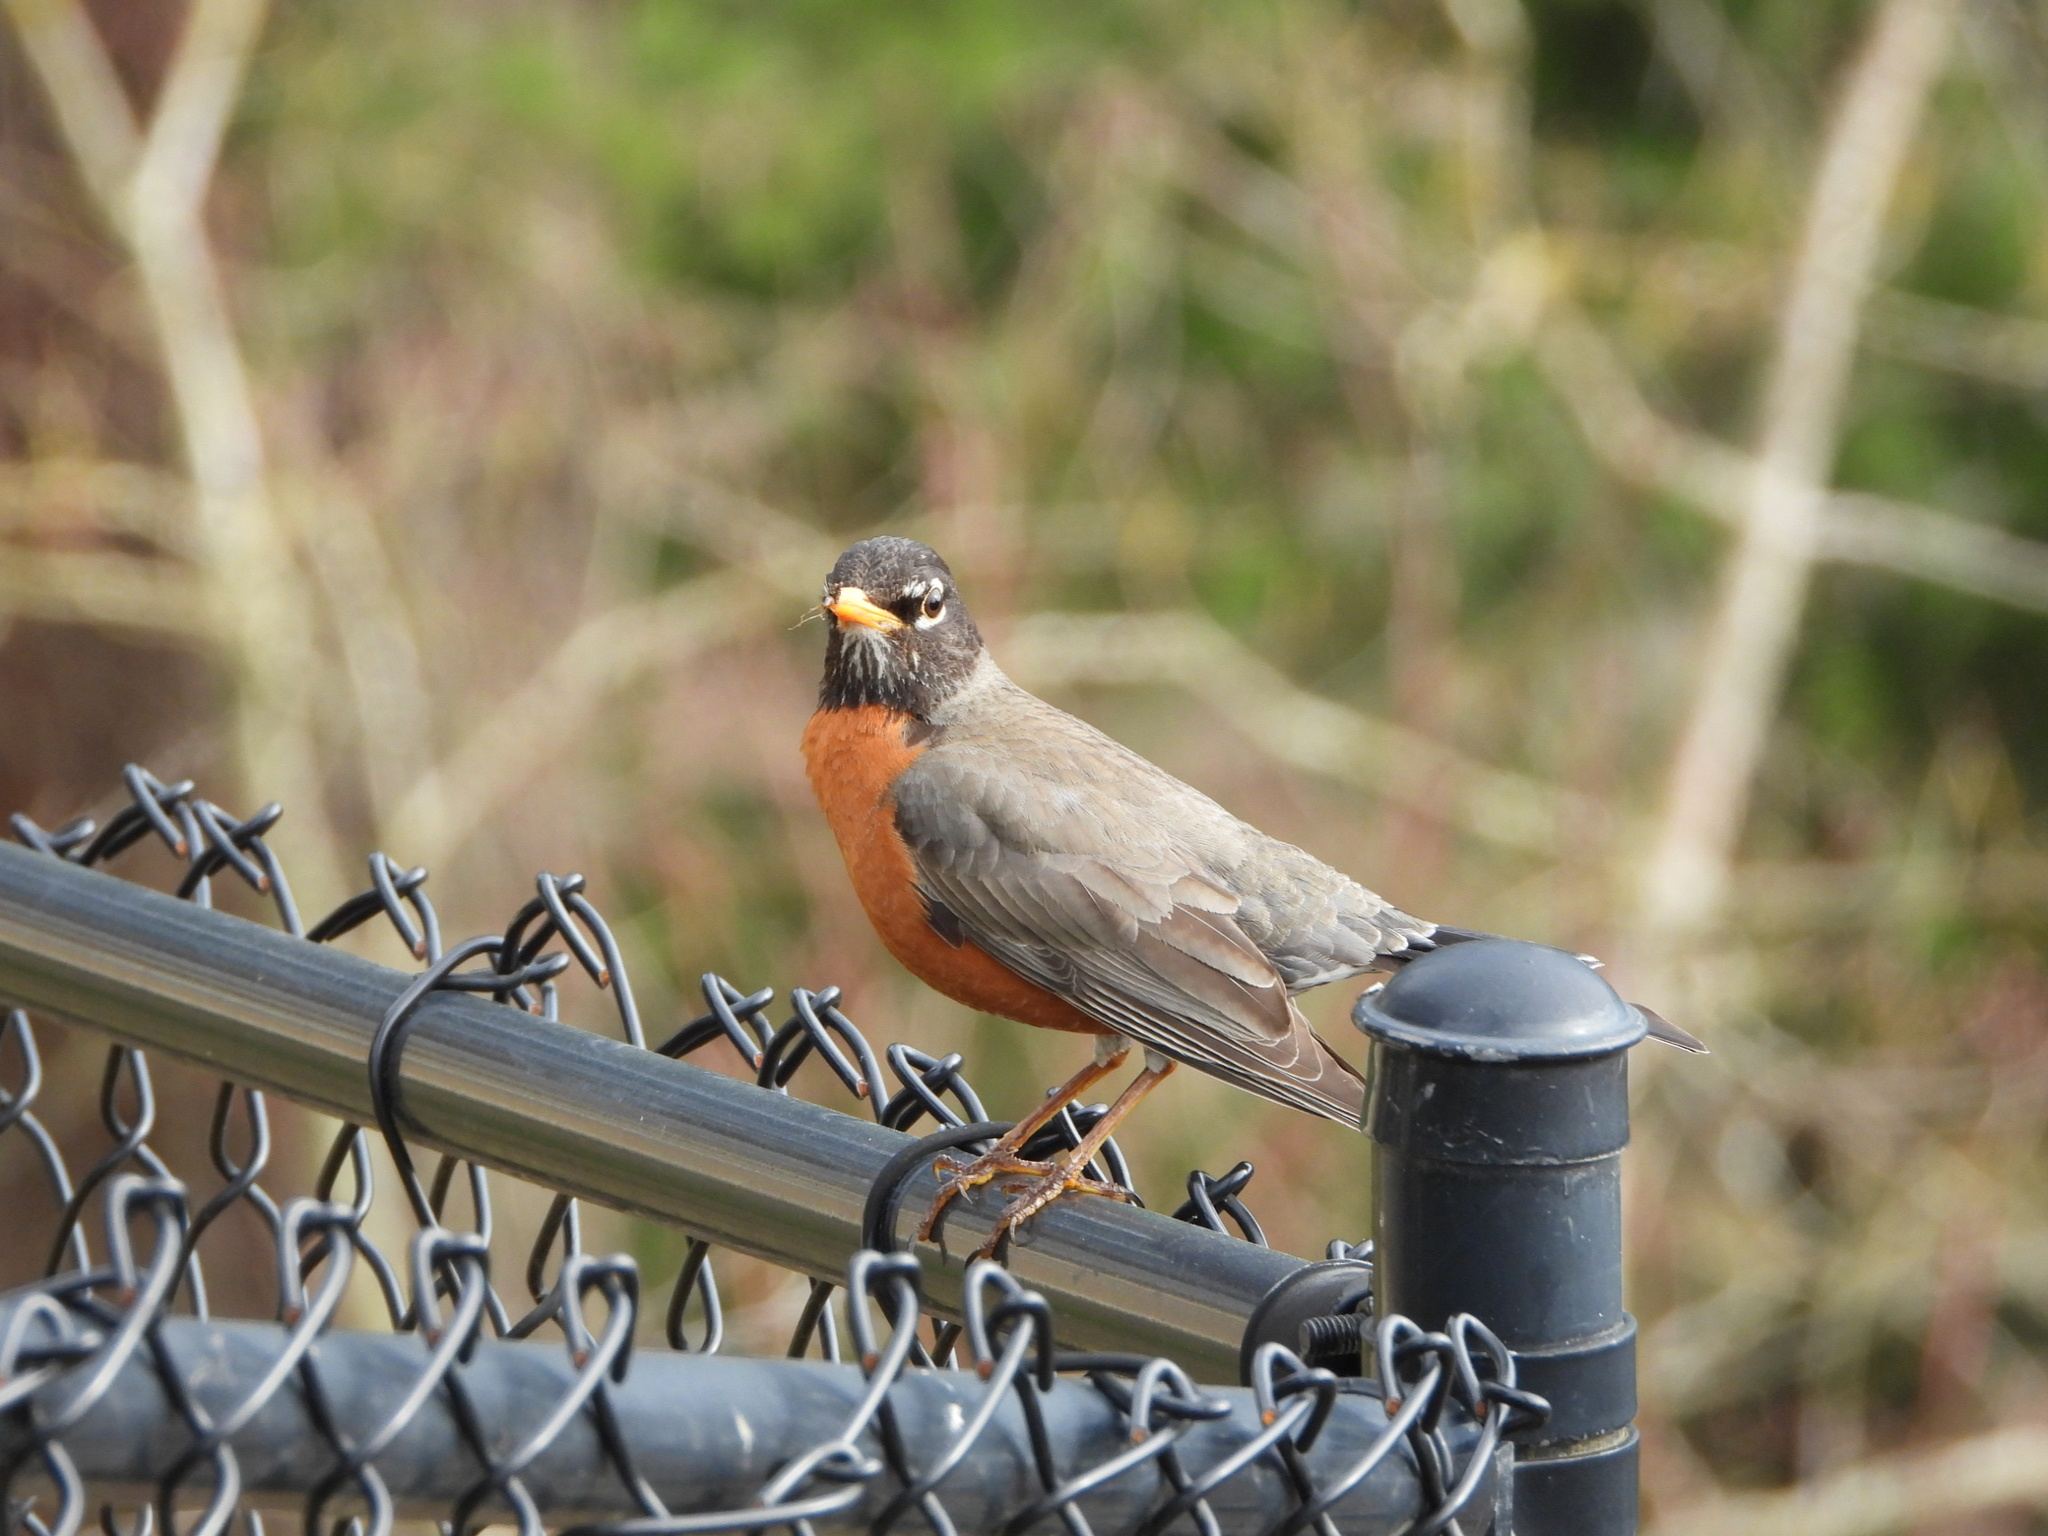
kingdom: Animalia
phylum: Chordata
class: Aves
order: Passeriformes
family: Turdidae
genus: Turdus
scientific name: Turdus migratorius
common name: American robin
